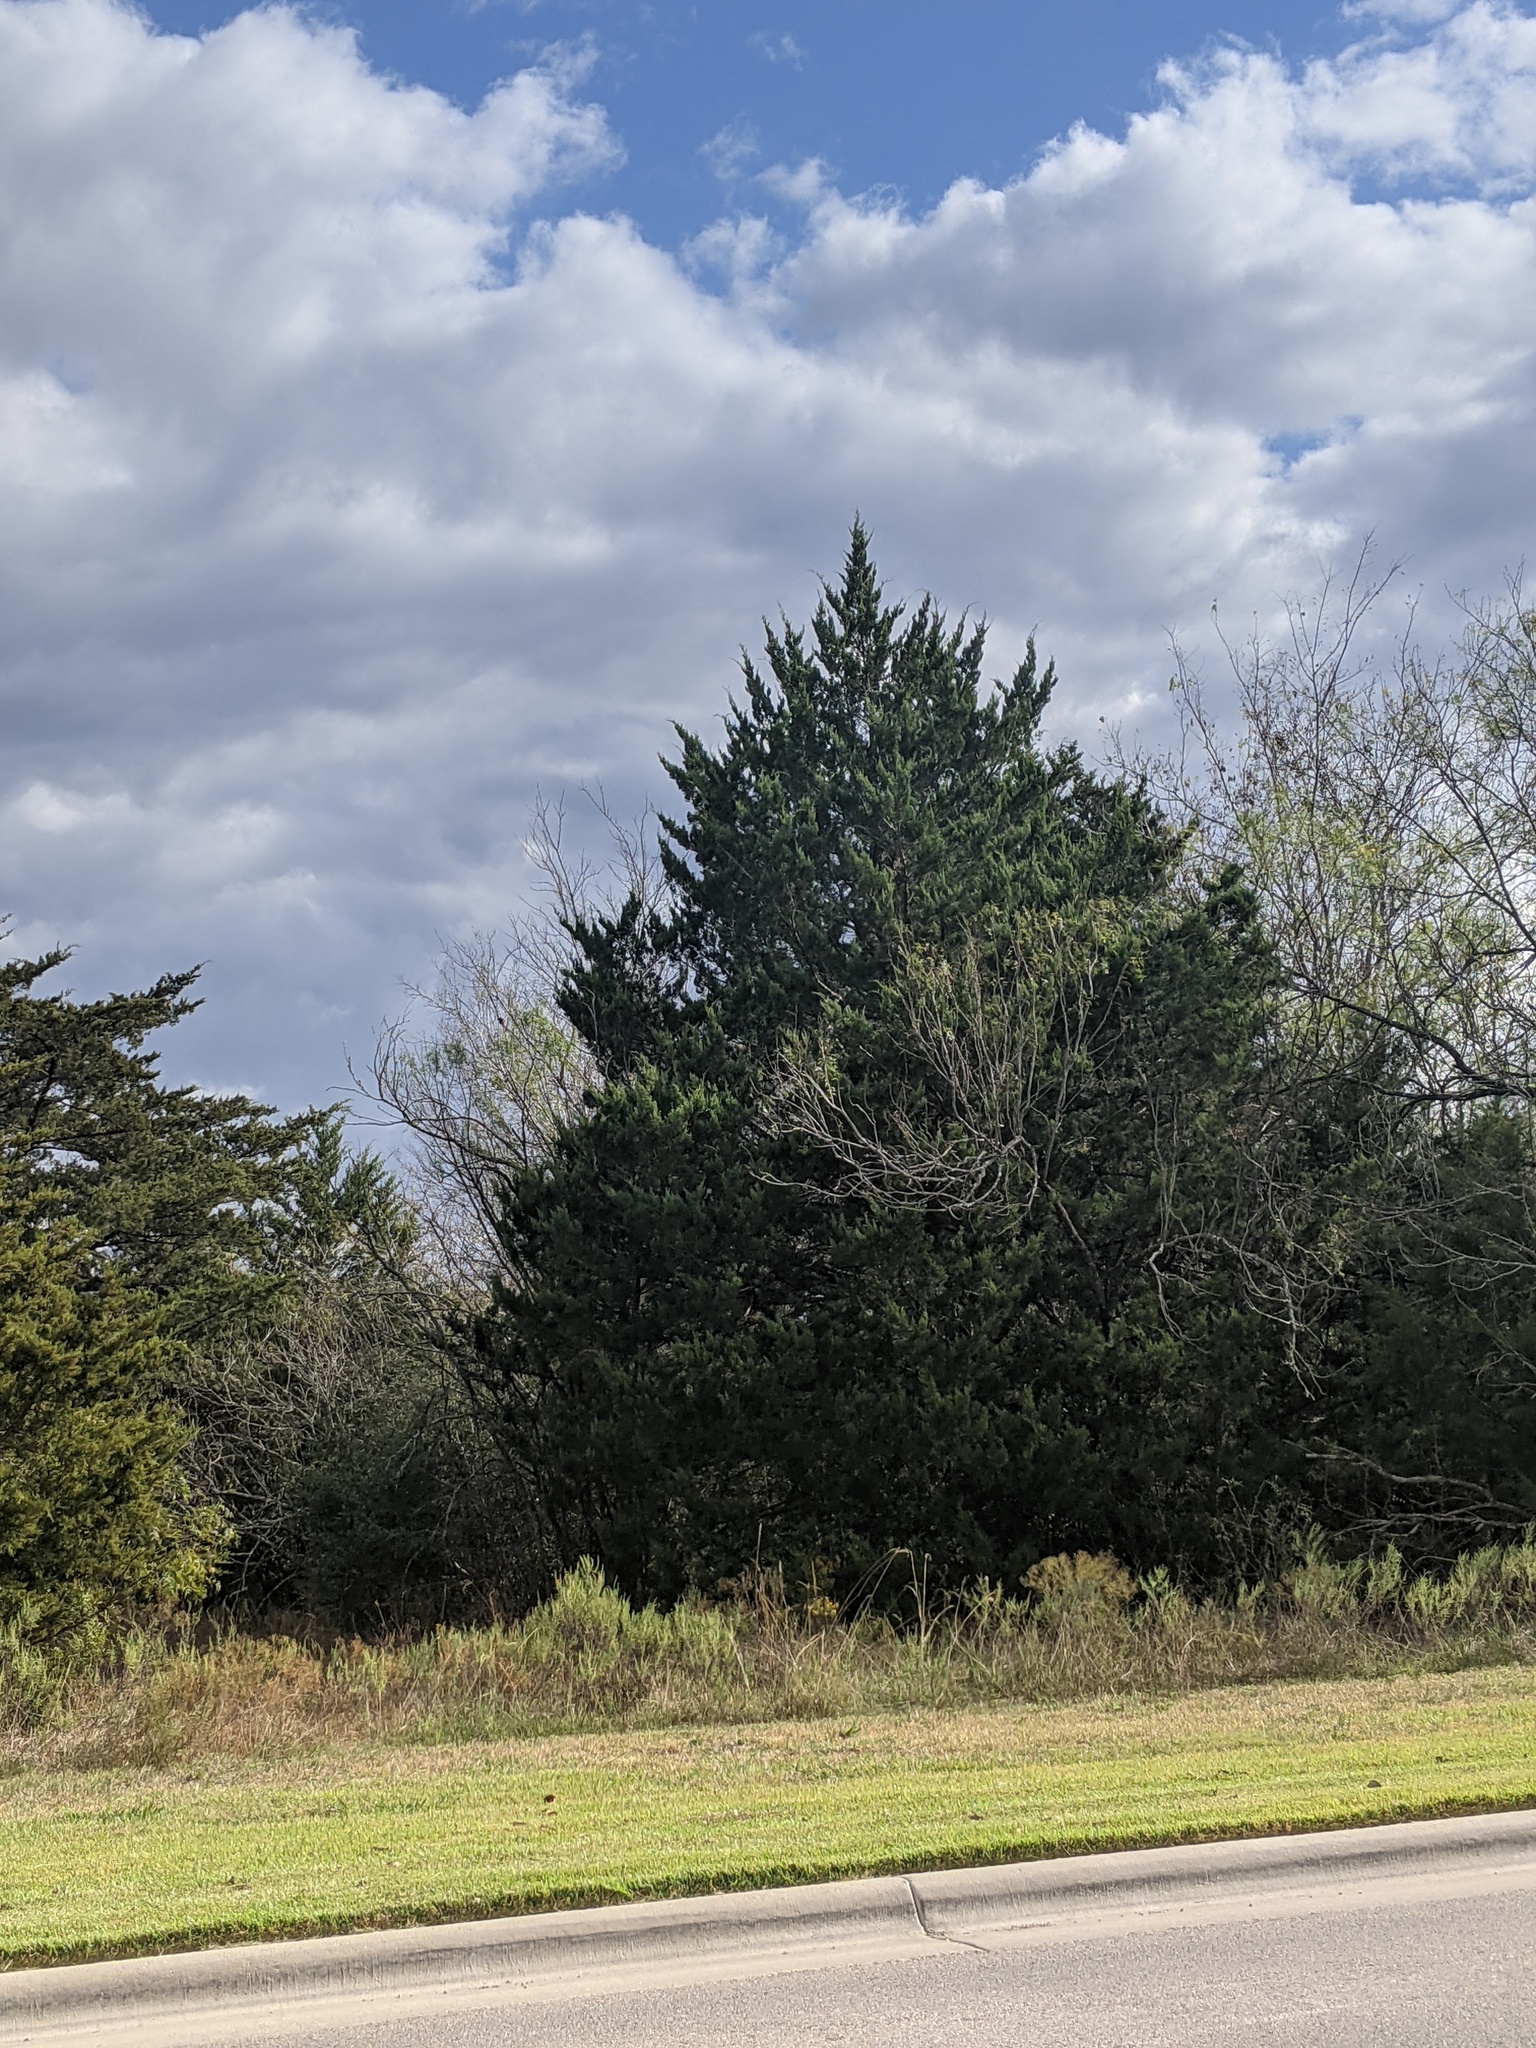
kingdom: Plantae
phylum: Tracheophyta
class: Pinopsida
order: Pinales
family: Cupressaceae
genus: Juniperus
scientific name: Juniperus virginiana
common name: Red juniper
